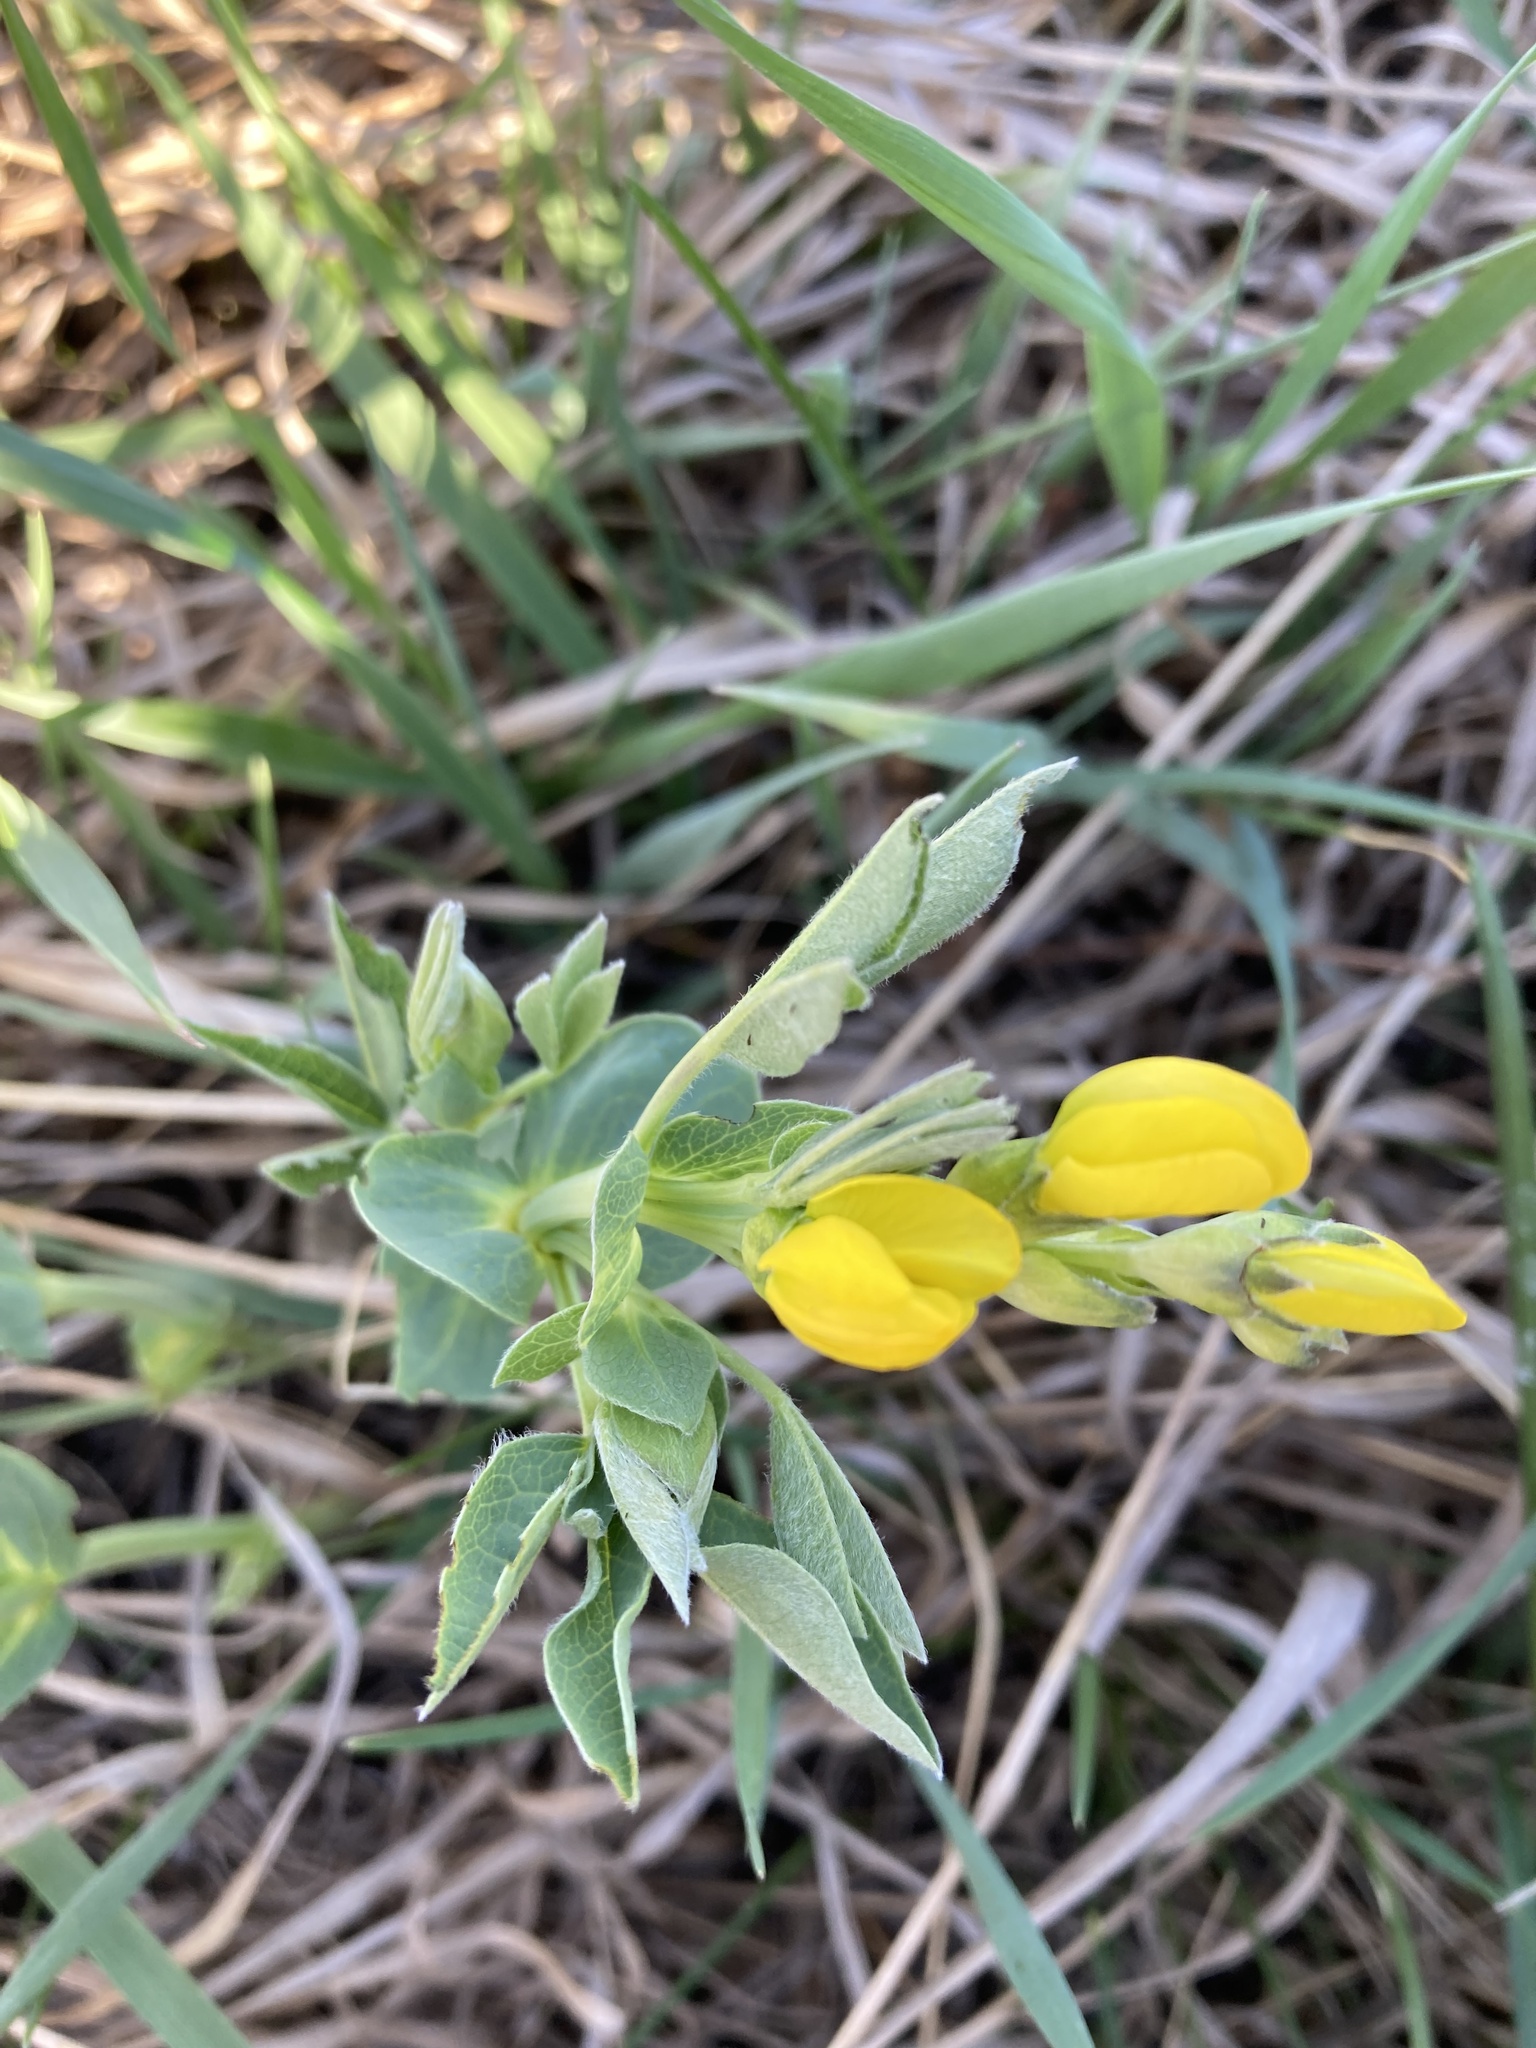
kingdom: Plantae
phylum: Tracheophyta
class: Magnoliopsida
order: Fabales
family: Fabaceae
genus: Thermopsis
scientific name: Thermopsis rhombifolia
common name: Circle-pod-pea
